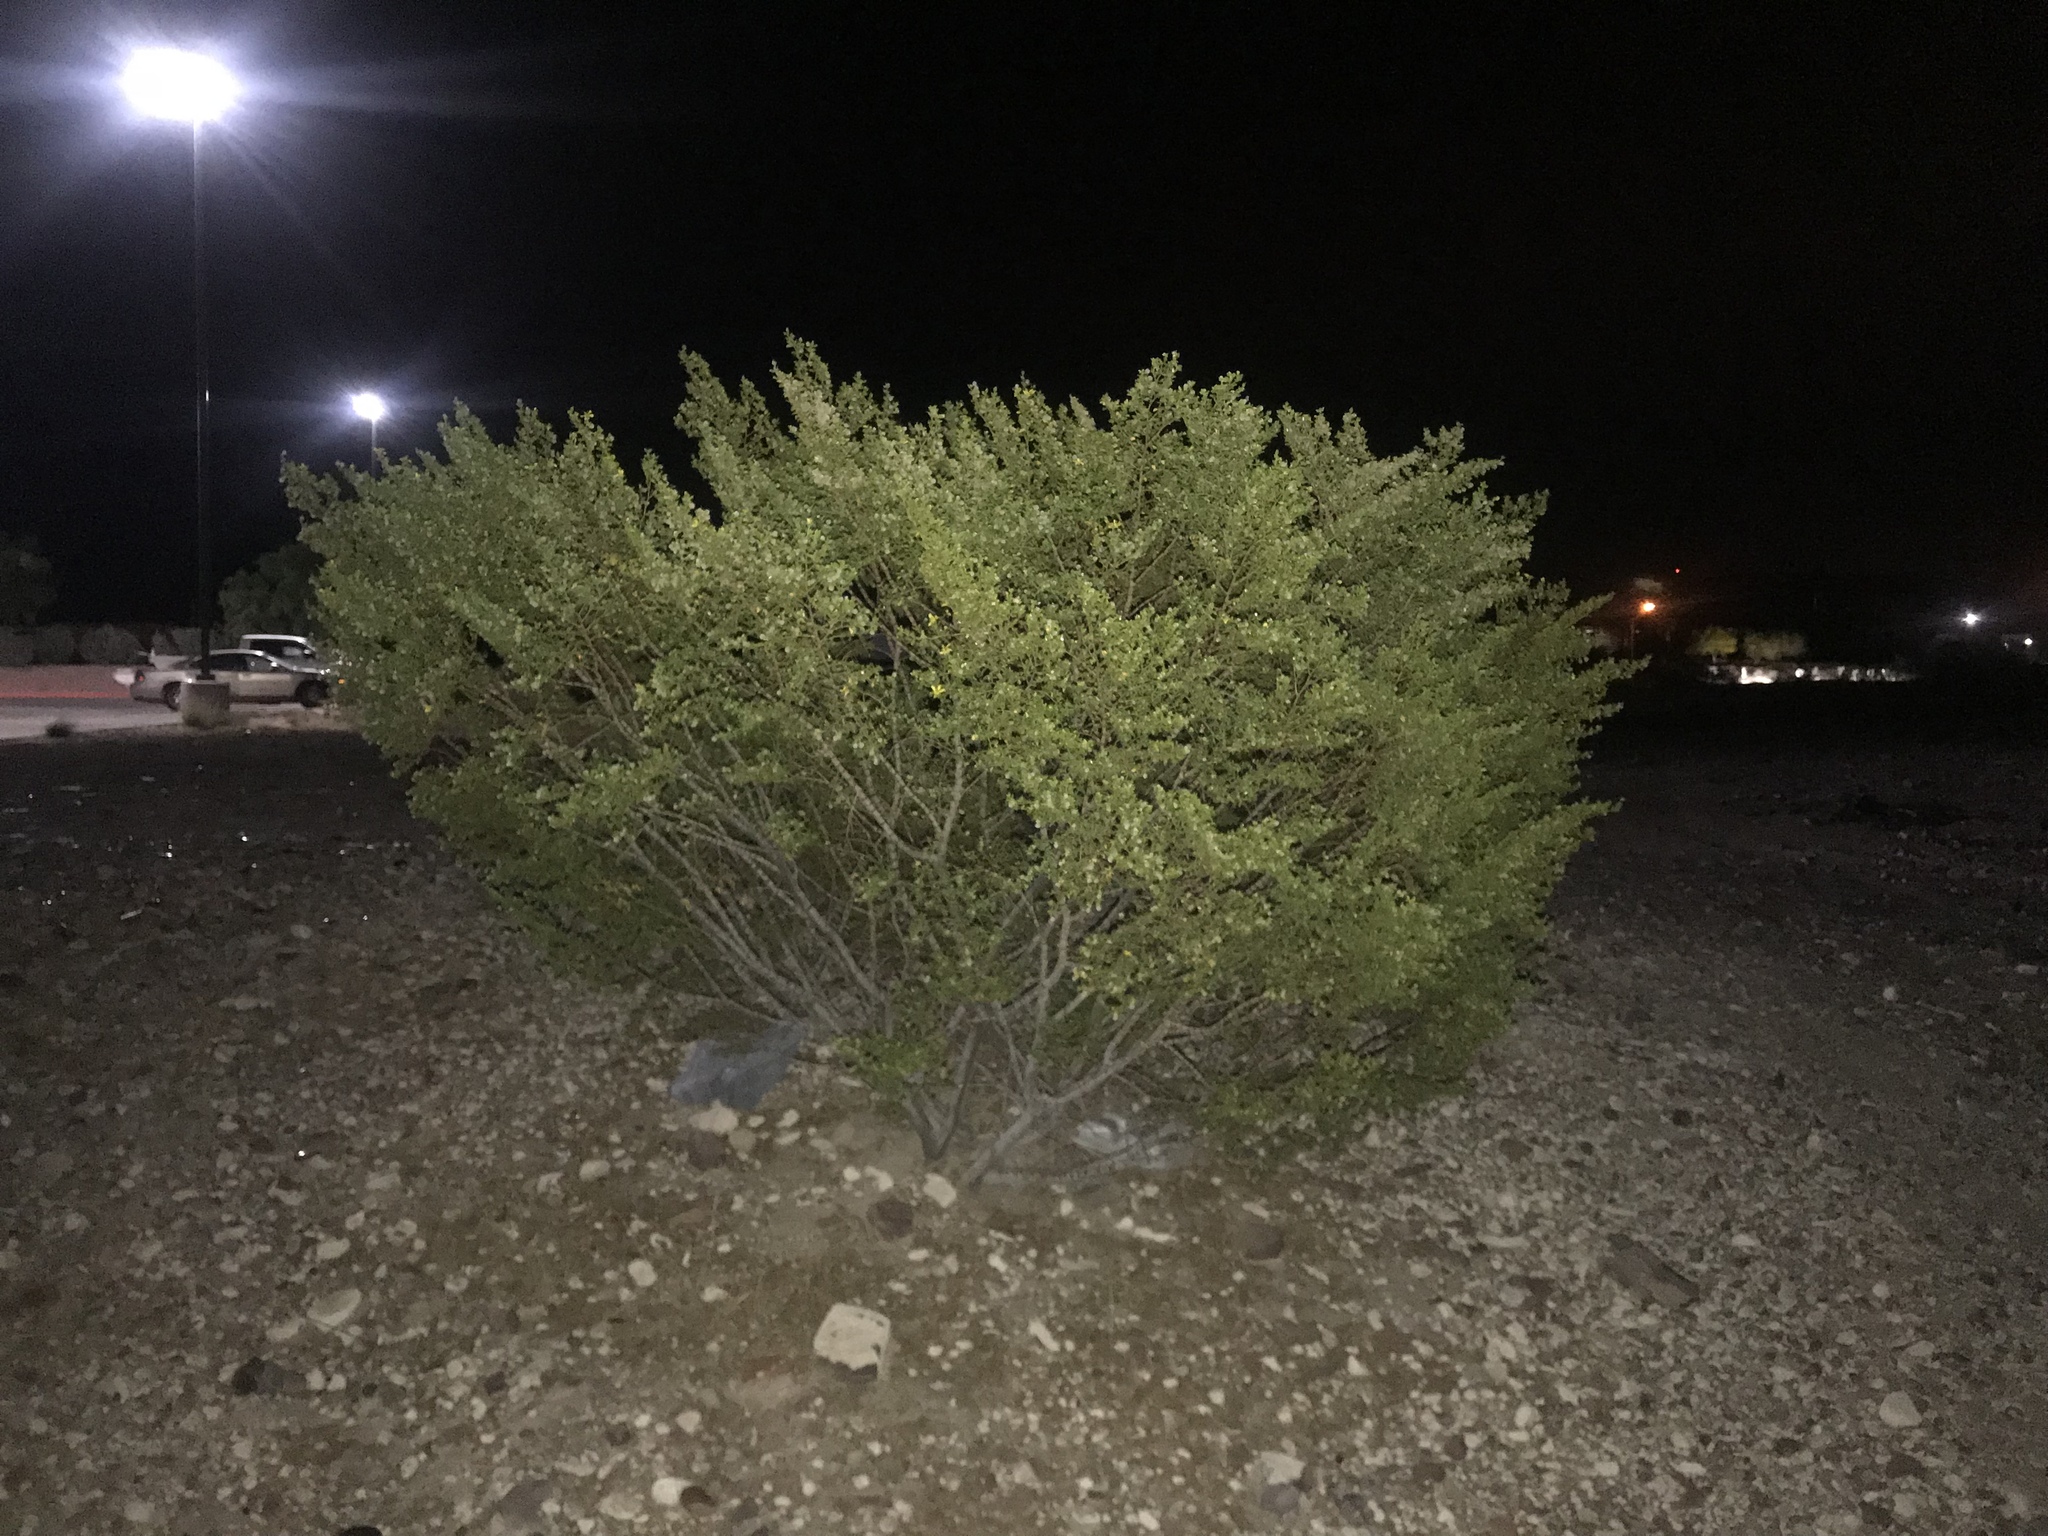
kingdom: Plantae
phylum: Tracheophyta
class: Magnoliopsida
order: Zygophyllales
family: Zygophyllaceae
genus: Larrea
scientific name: Larrea tridentata
